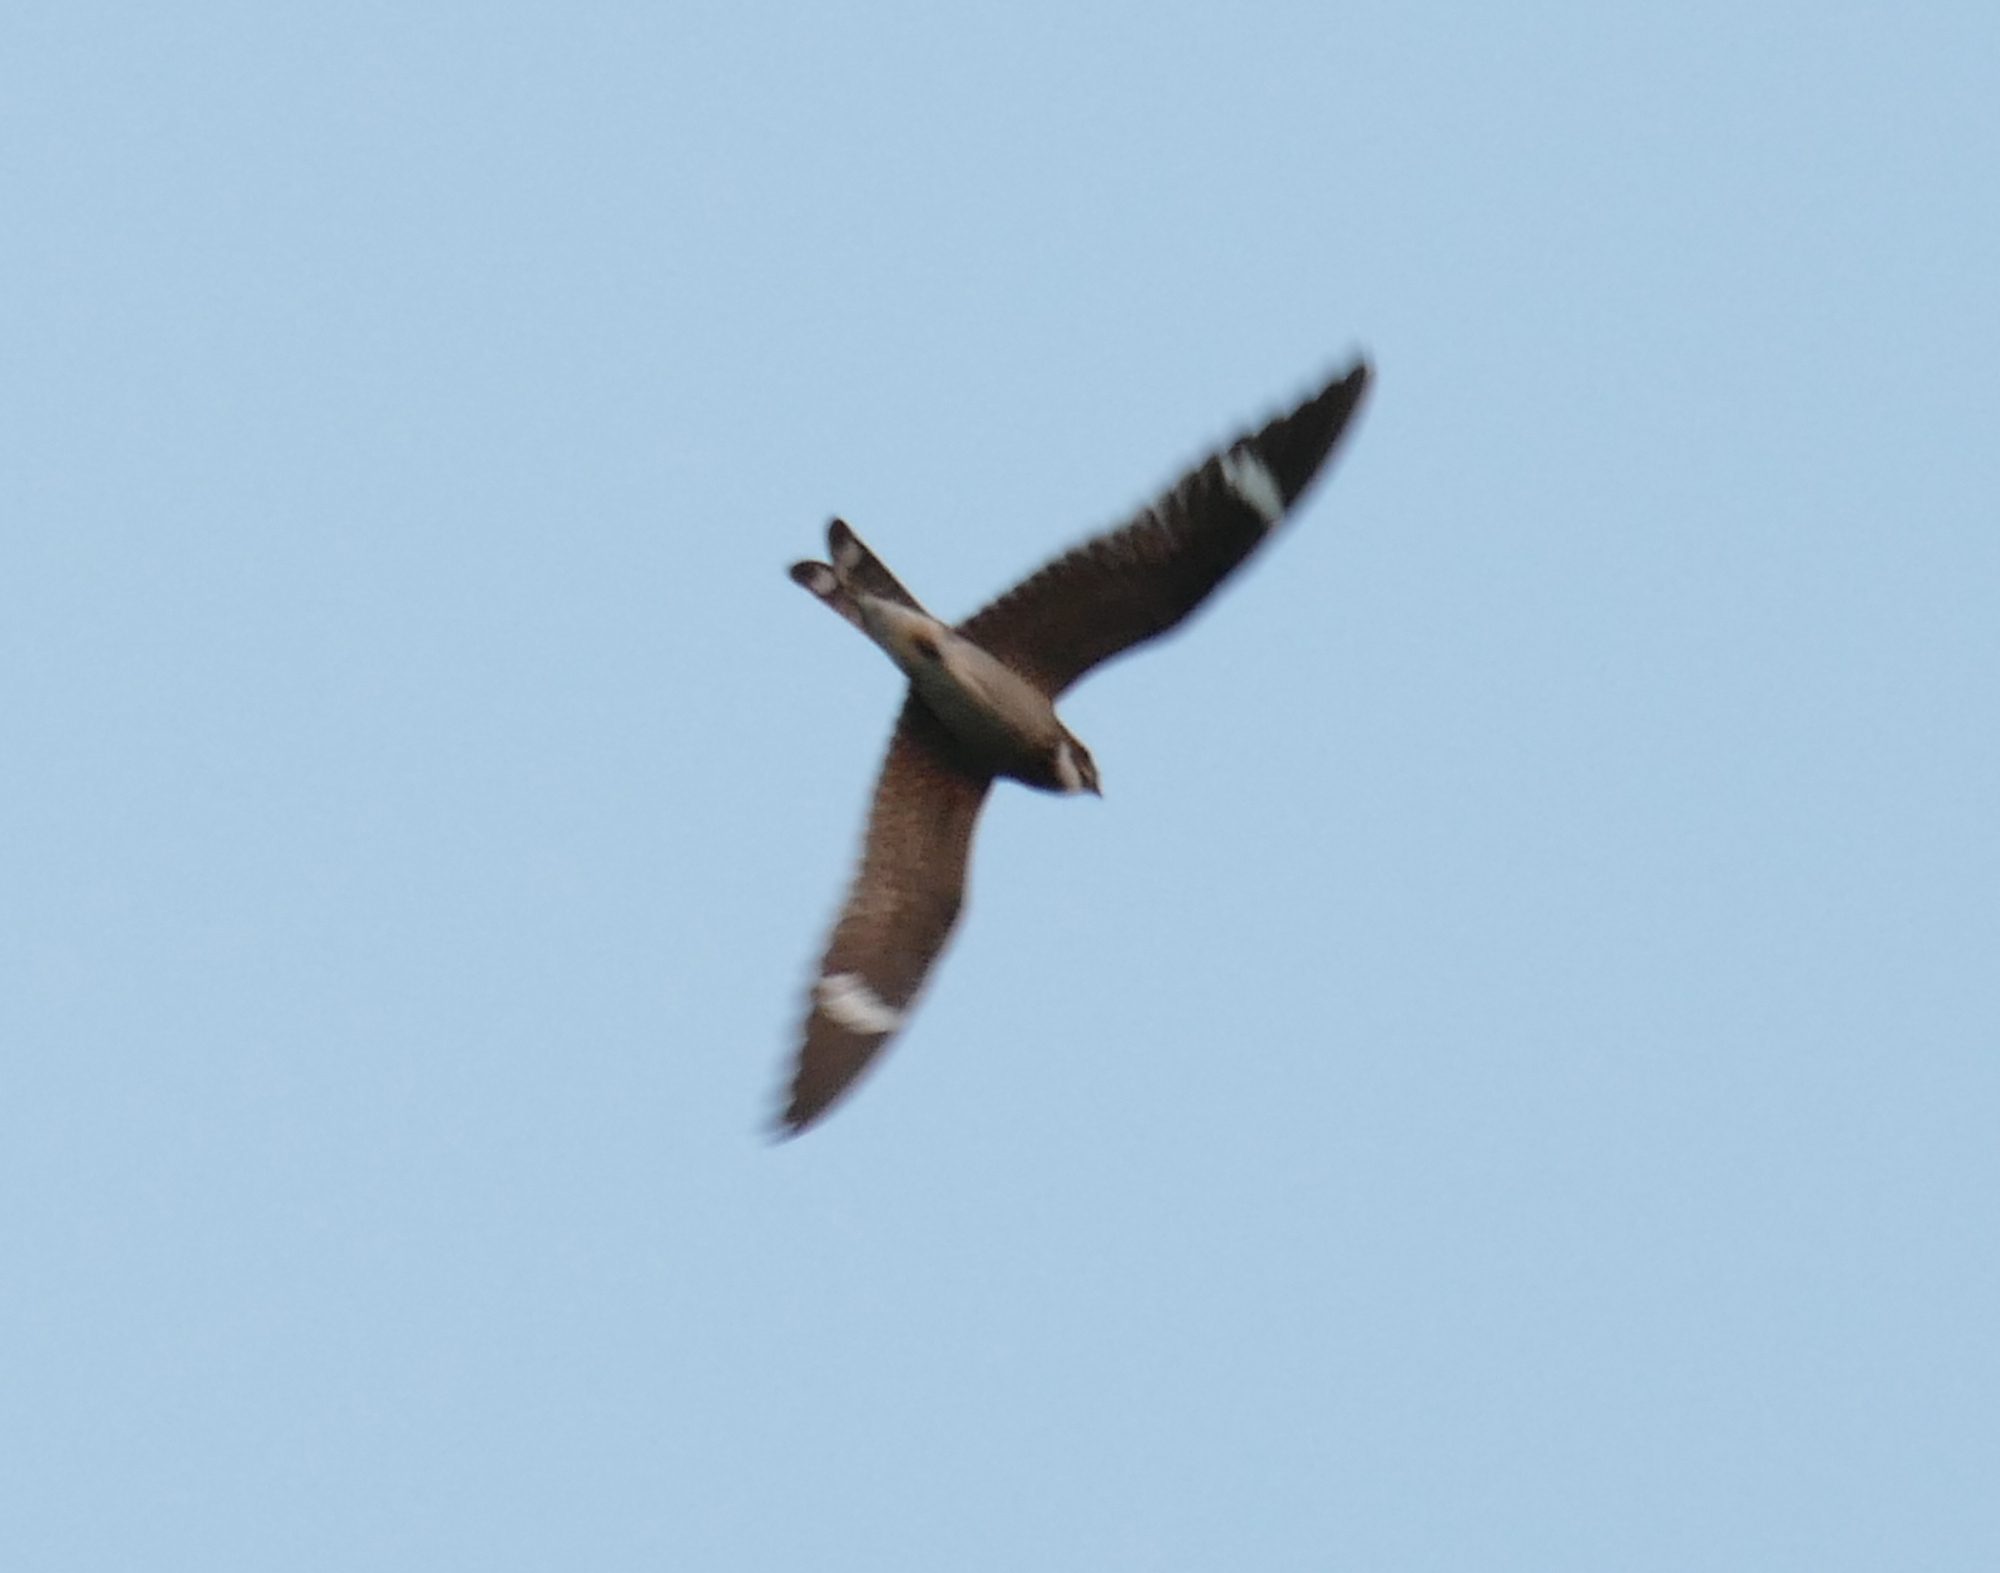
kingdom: Animalia
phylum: Chordata
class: Aves
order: Caprimulgiformes
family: Caprimulgidae
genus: Chordeiles
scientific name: Chordeiles minor
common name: Common nighthawk
